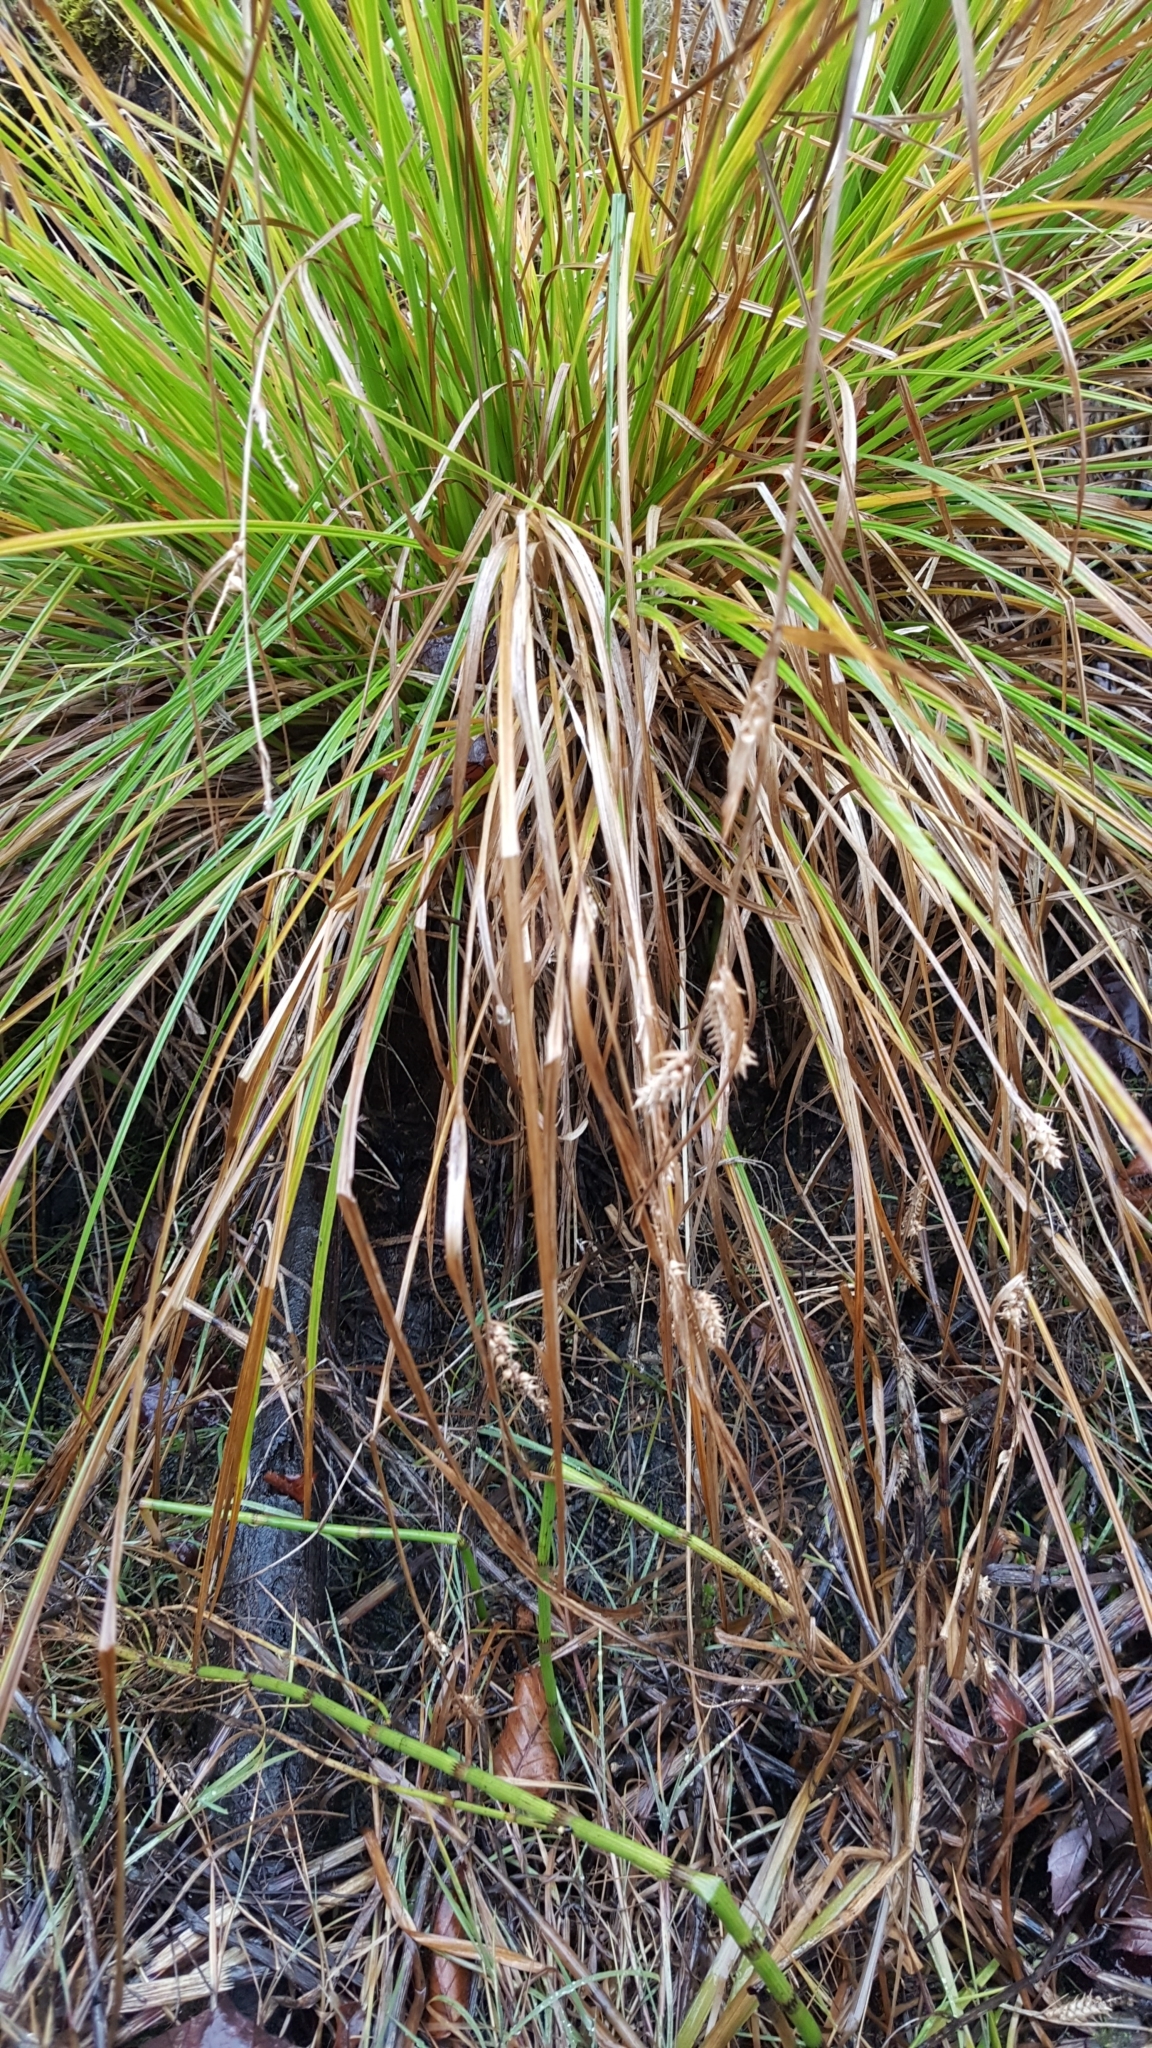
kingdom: Plantae
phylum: Tracheophyta
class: Liliopsida
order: Poales
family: Cyperaceae
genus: Carex
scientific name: Carex vesicaria
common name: Bladder-sedge
